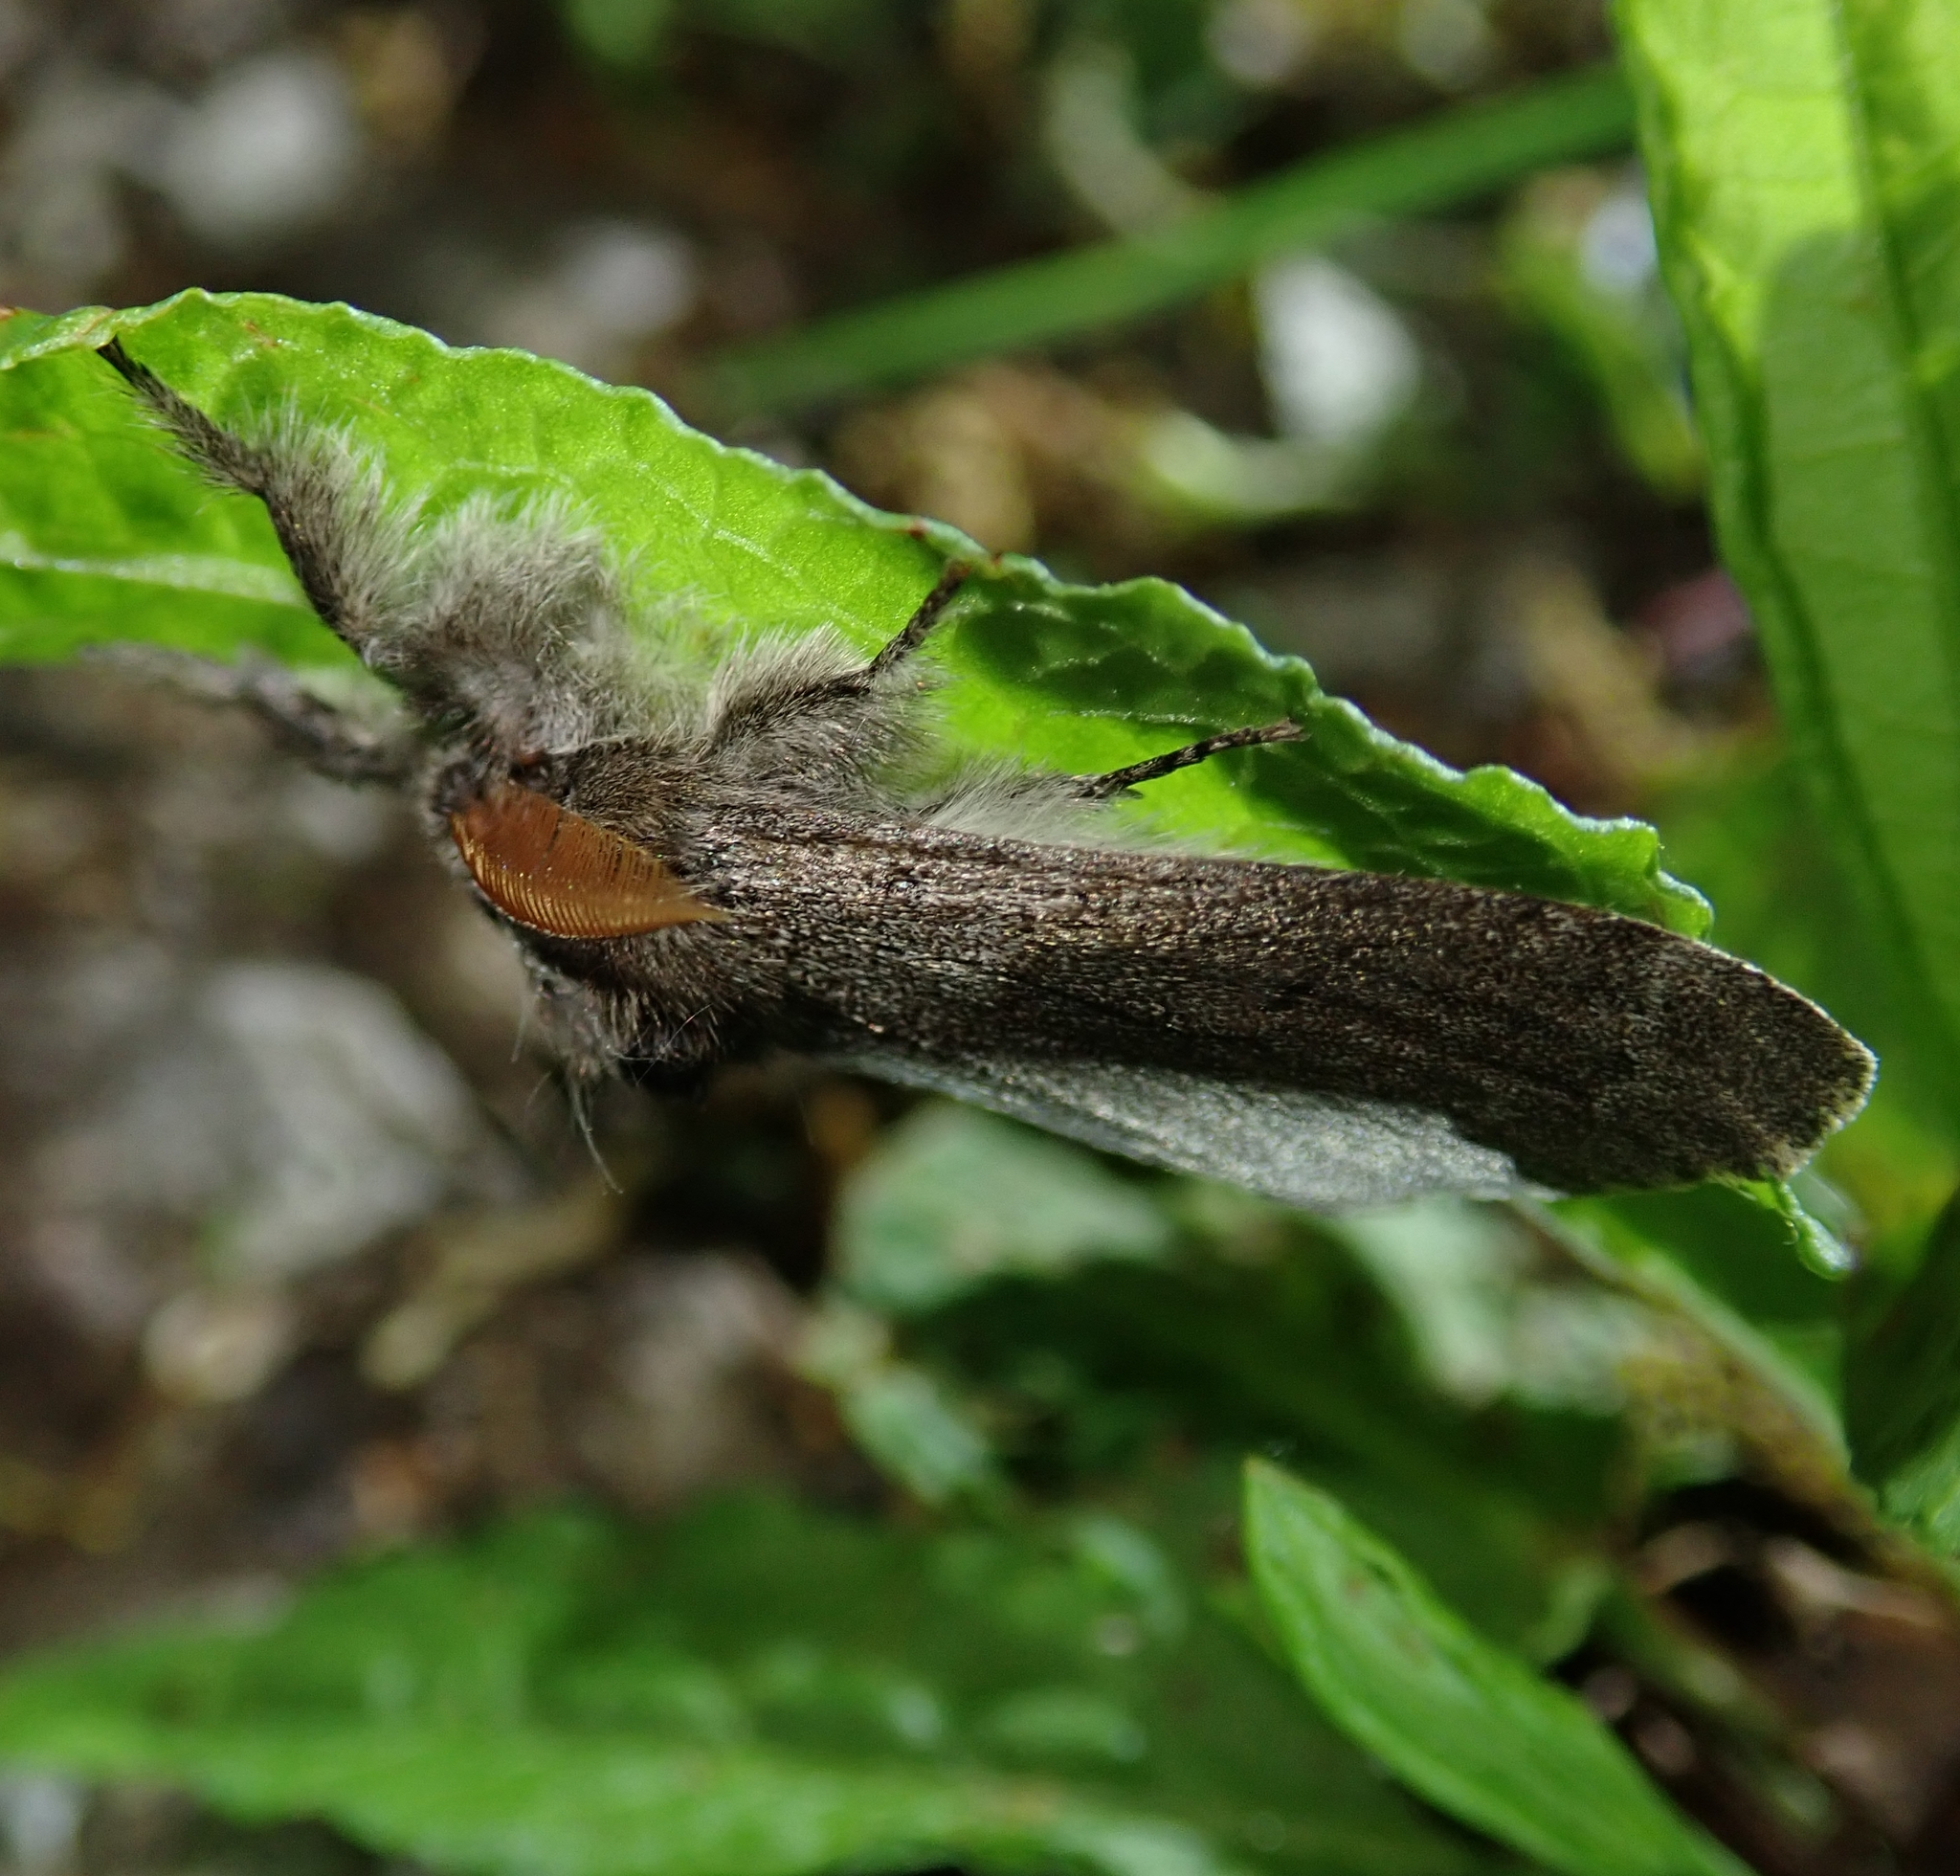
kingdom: Animalia
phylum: Arthropoda
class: Insecta
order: Lepidoptera
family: Erebidae
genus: Calliteara
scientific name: Calliteara pudibunda
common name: Pale tussock
